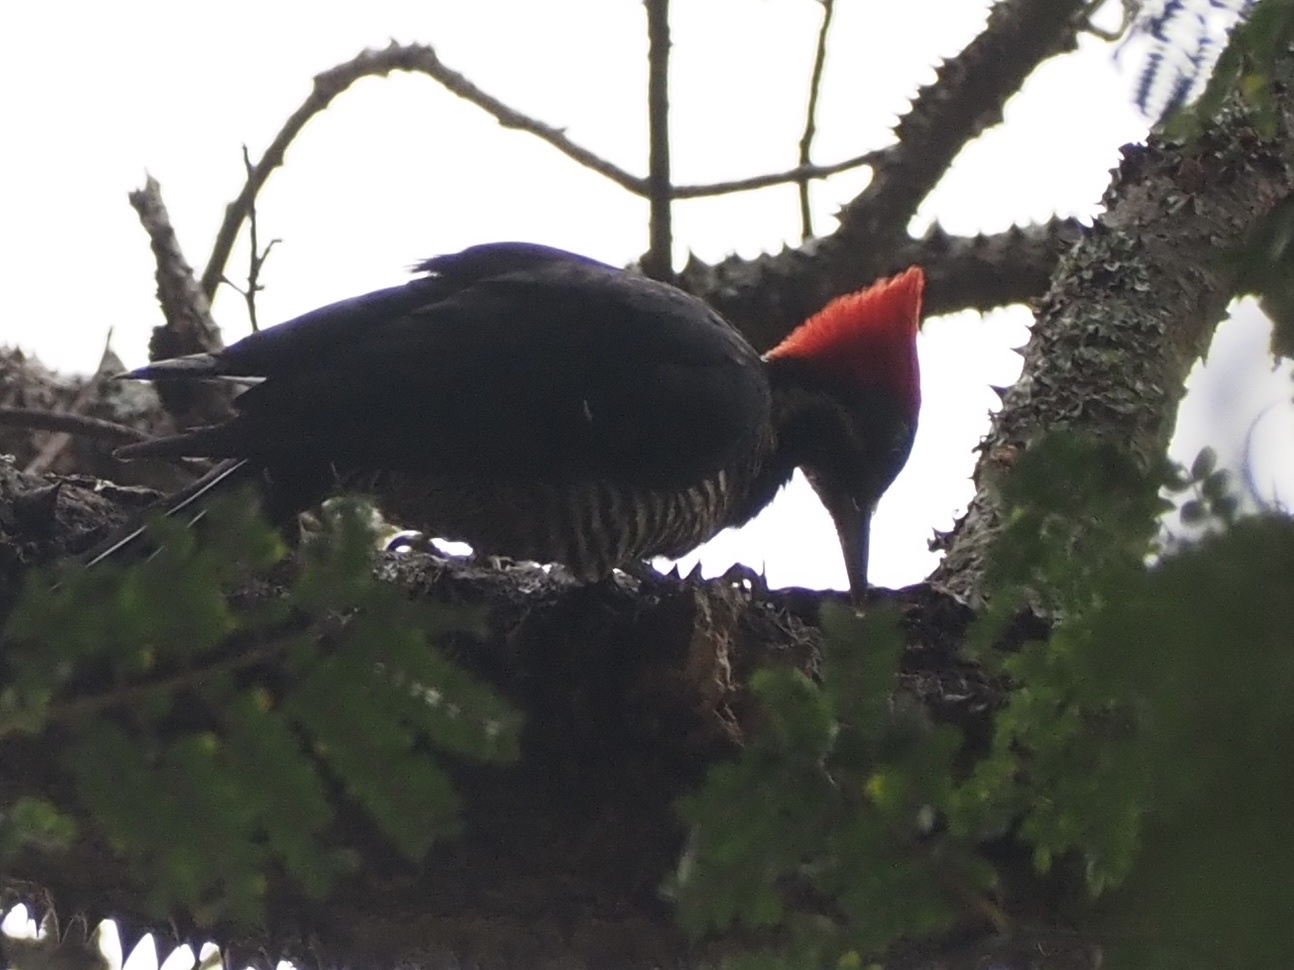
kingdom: Animalia
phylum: Chordata
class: Aves
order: Piciformes
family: Picidae
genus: Dryocopus
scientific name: Dryocopus lineatus
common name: Lineated woodpecker
